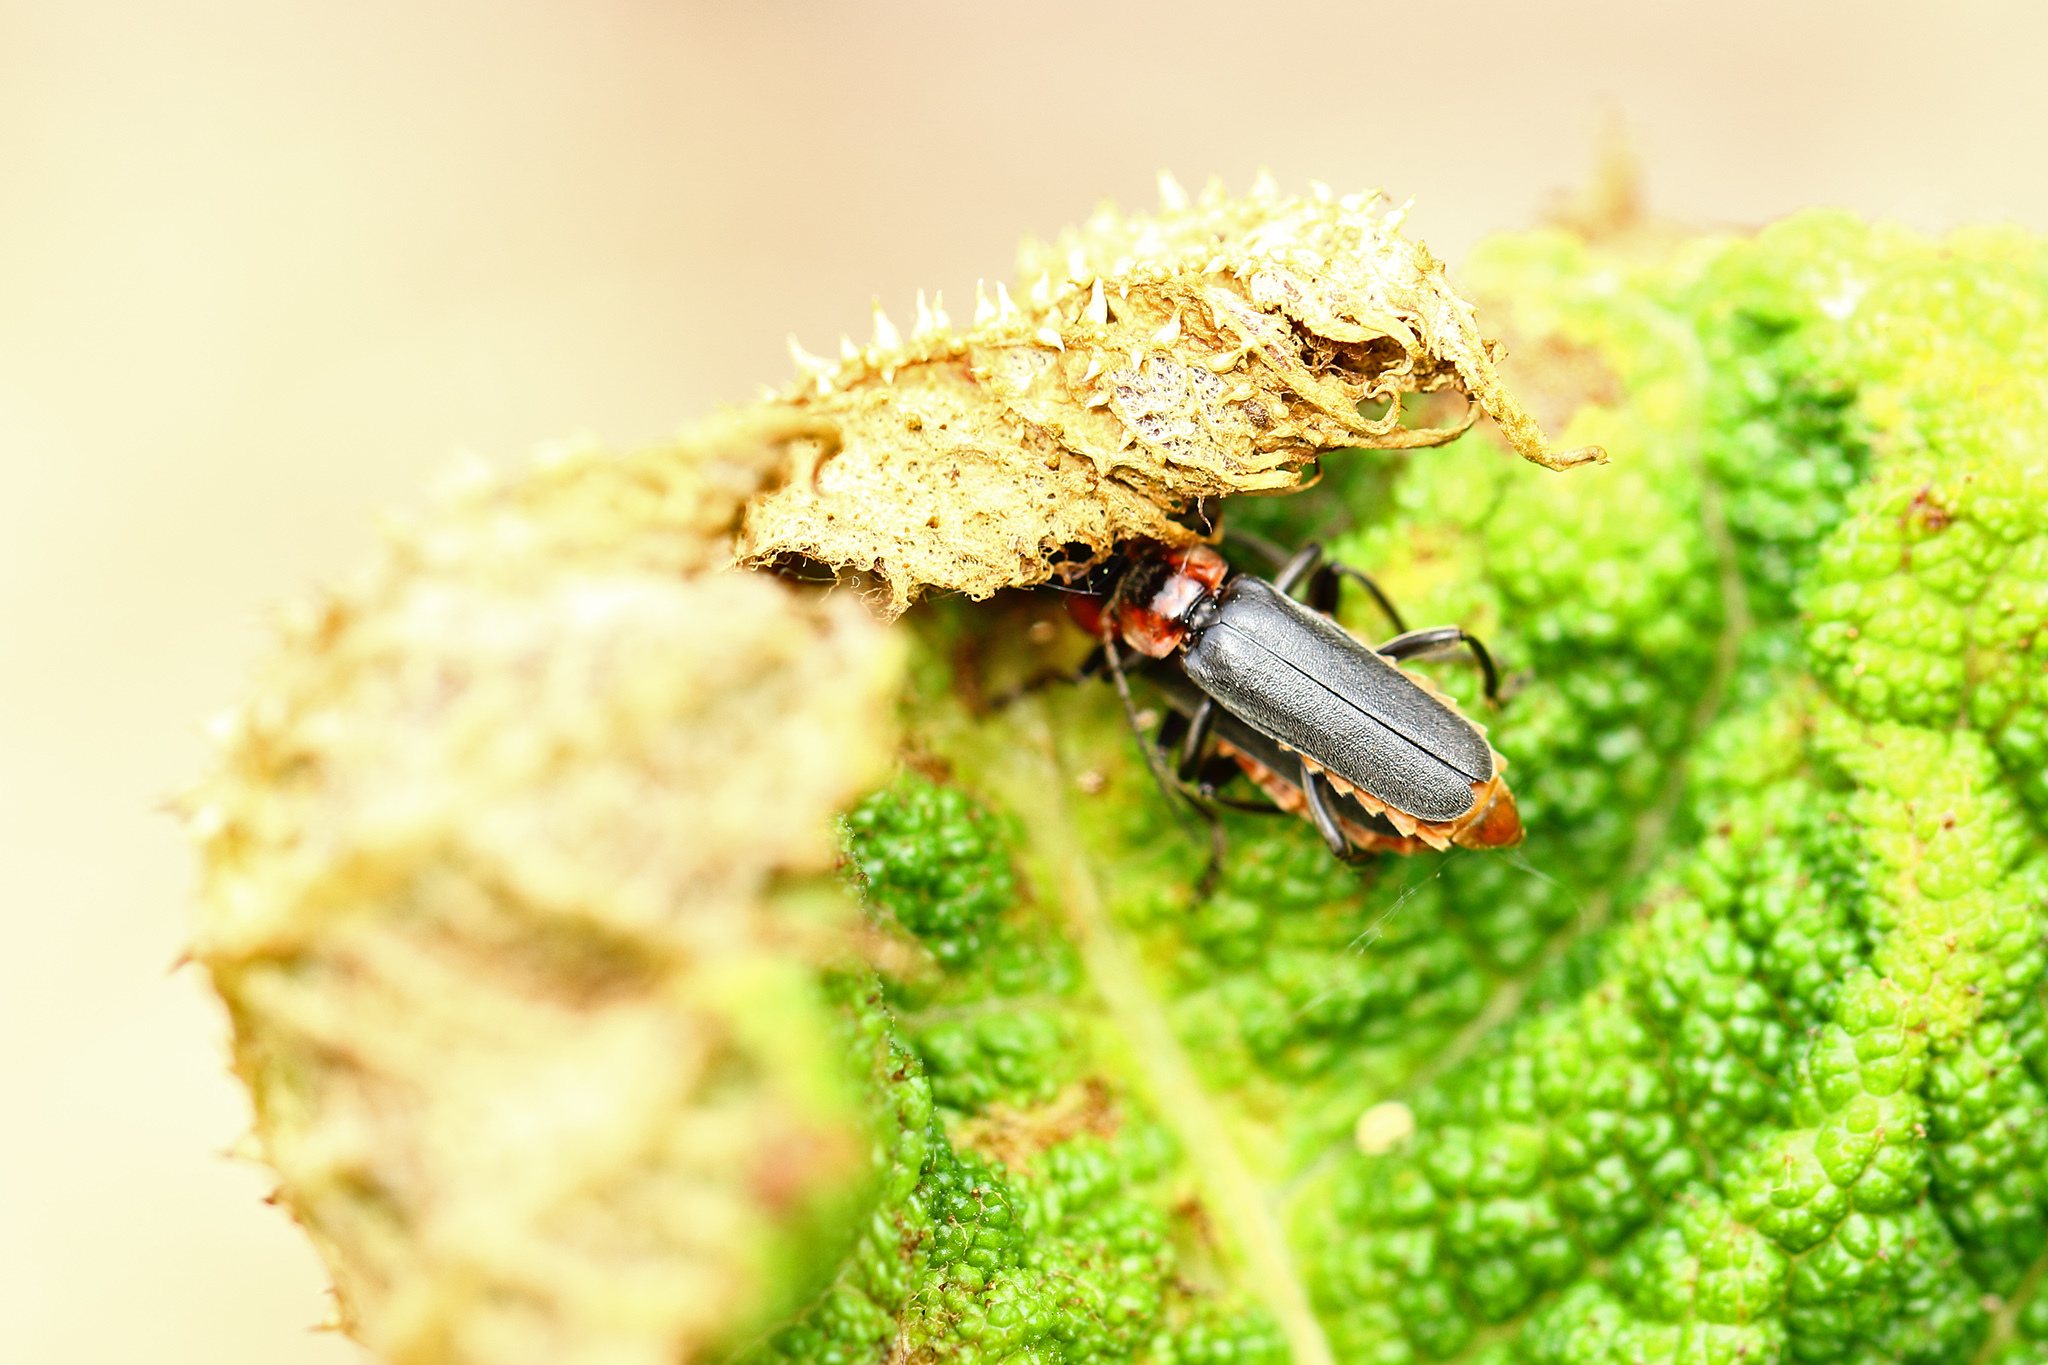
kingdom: Animalia
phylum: Arthropoda
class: Insecta
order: Coleoptera
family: Cantharidae
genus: Cantharis
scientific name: Cantharis fusca
